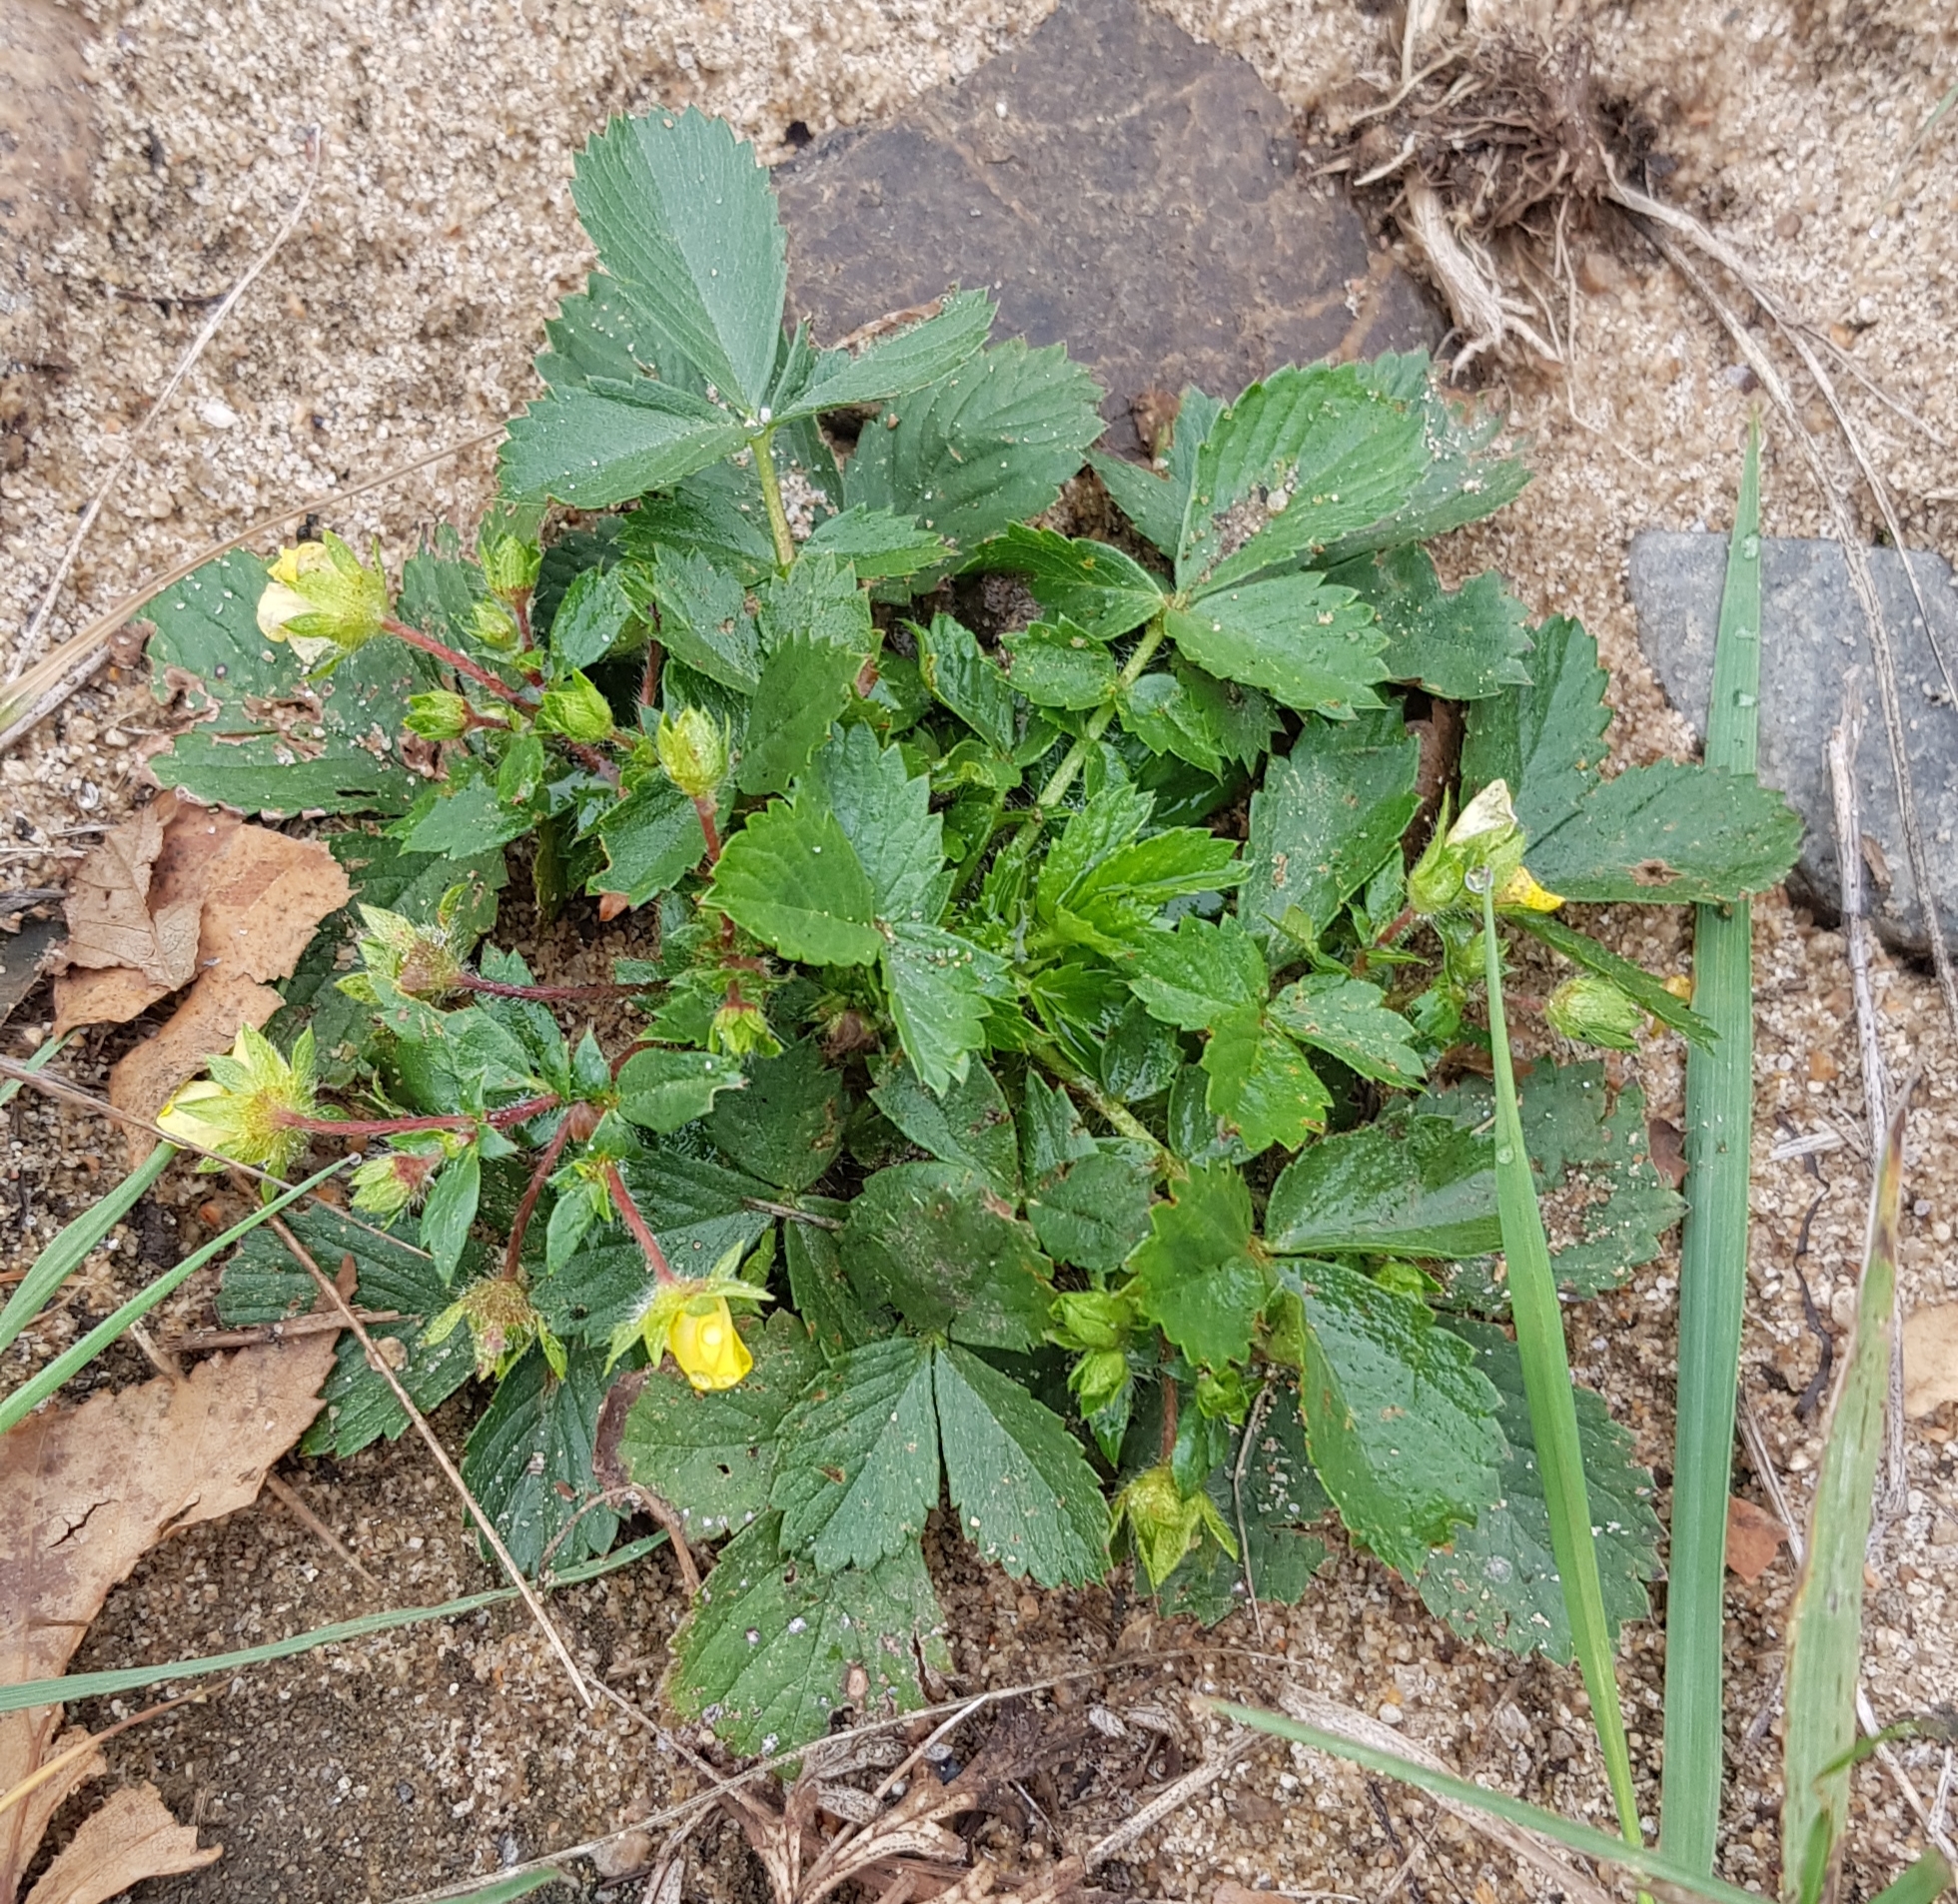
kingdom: Plantae
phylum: Tracheophyta
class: Magnoliopsida
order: Rosales
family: Rosaceae
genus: Potentilla
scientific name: Potentilla fragarioides
